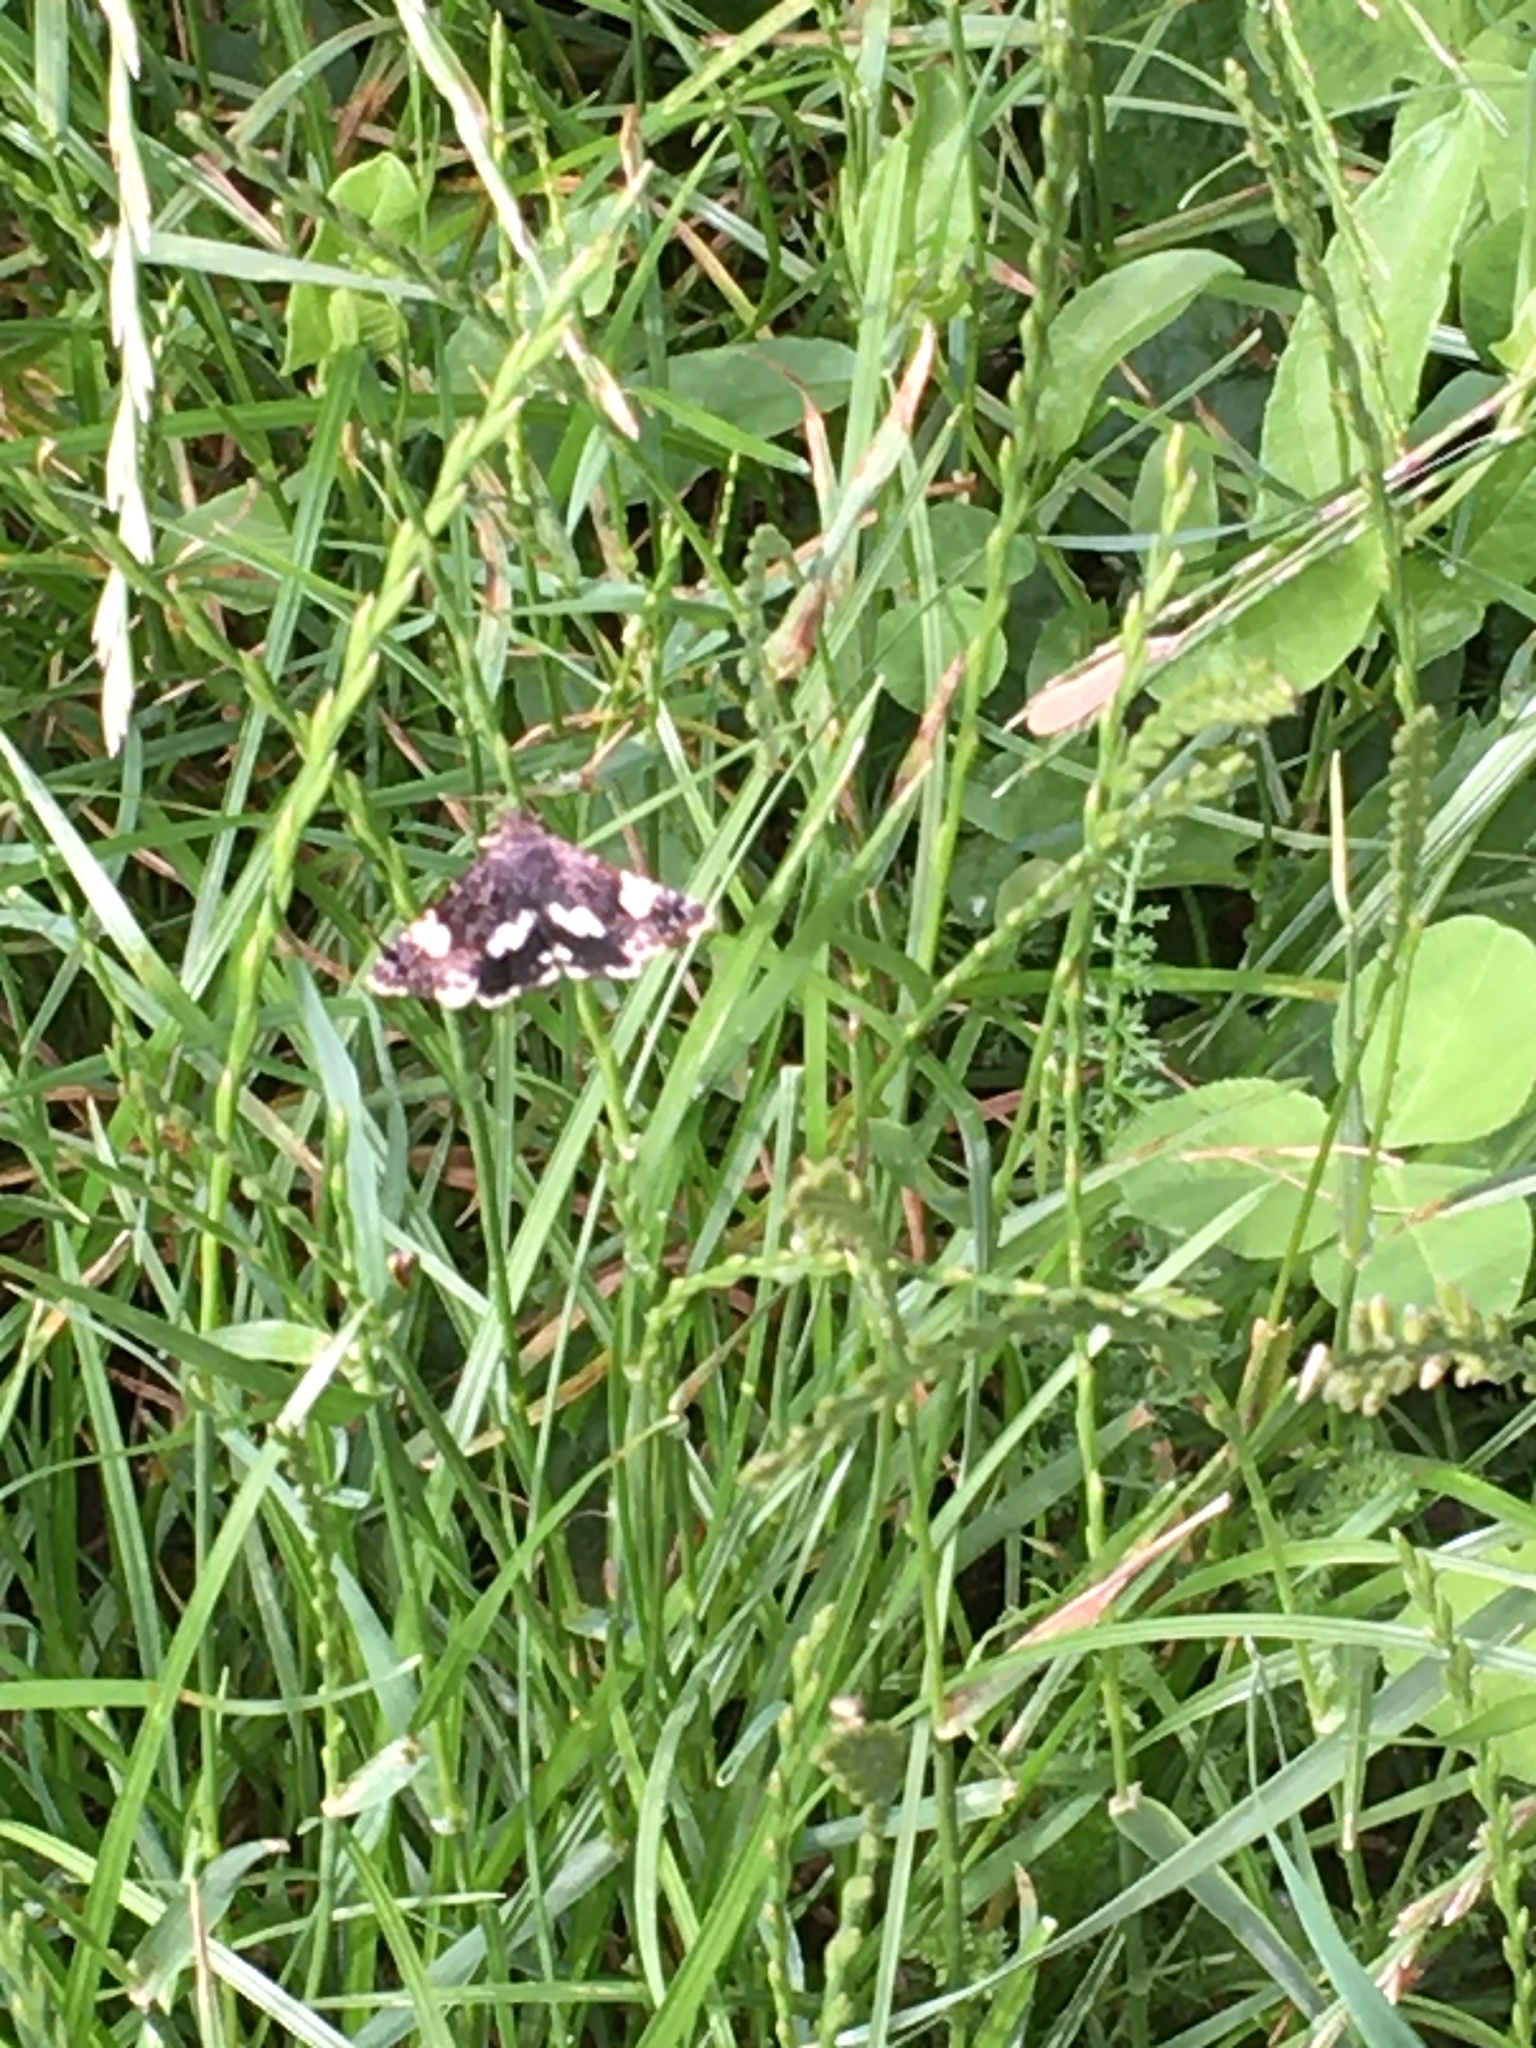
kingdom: Animalia
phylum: Arthropoda
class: Insecta
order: Lepidoptera
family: Erebidae
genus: Tyta
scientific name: Tyta luctuosa
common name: Four-spotted
